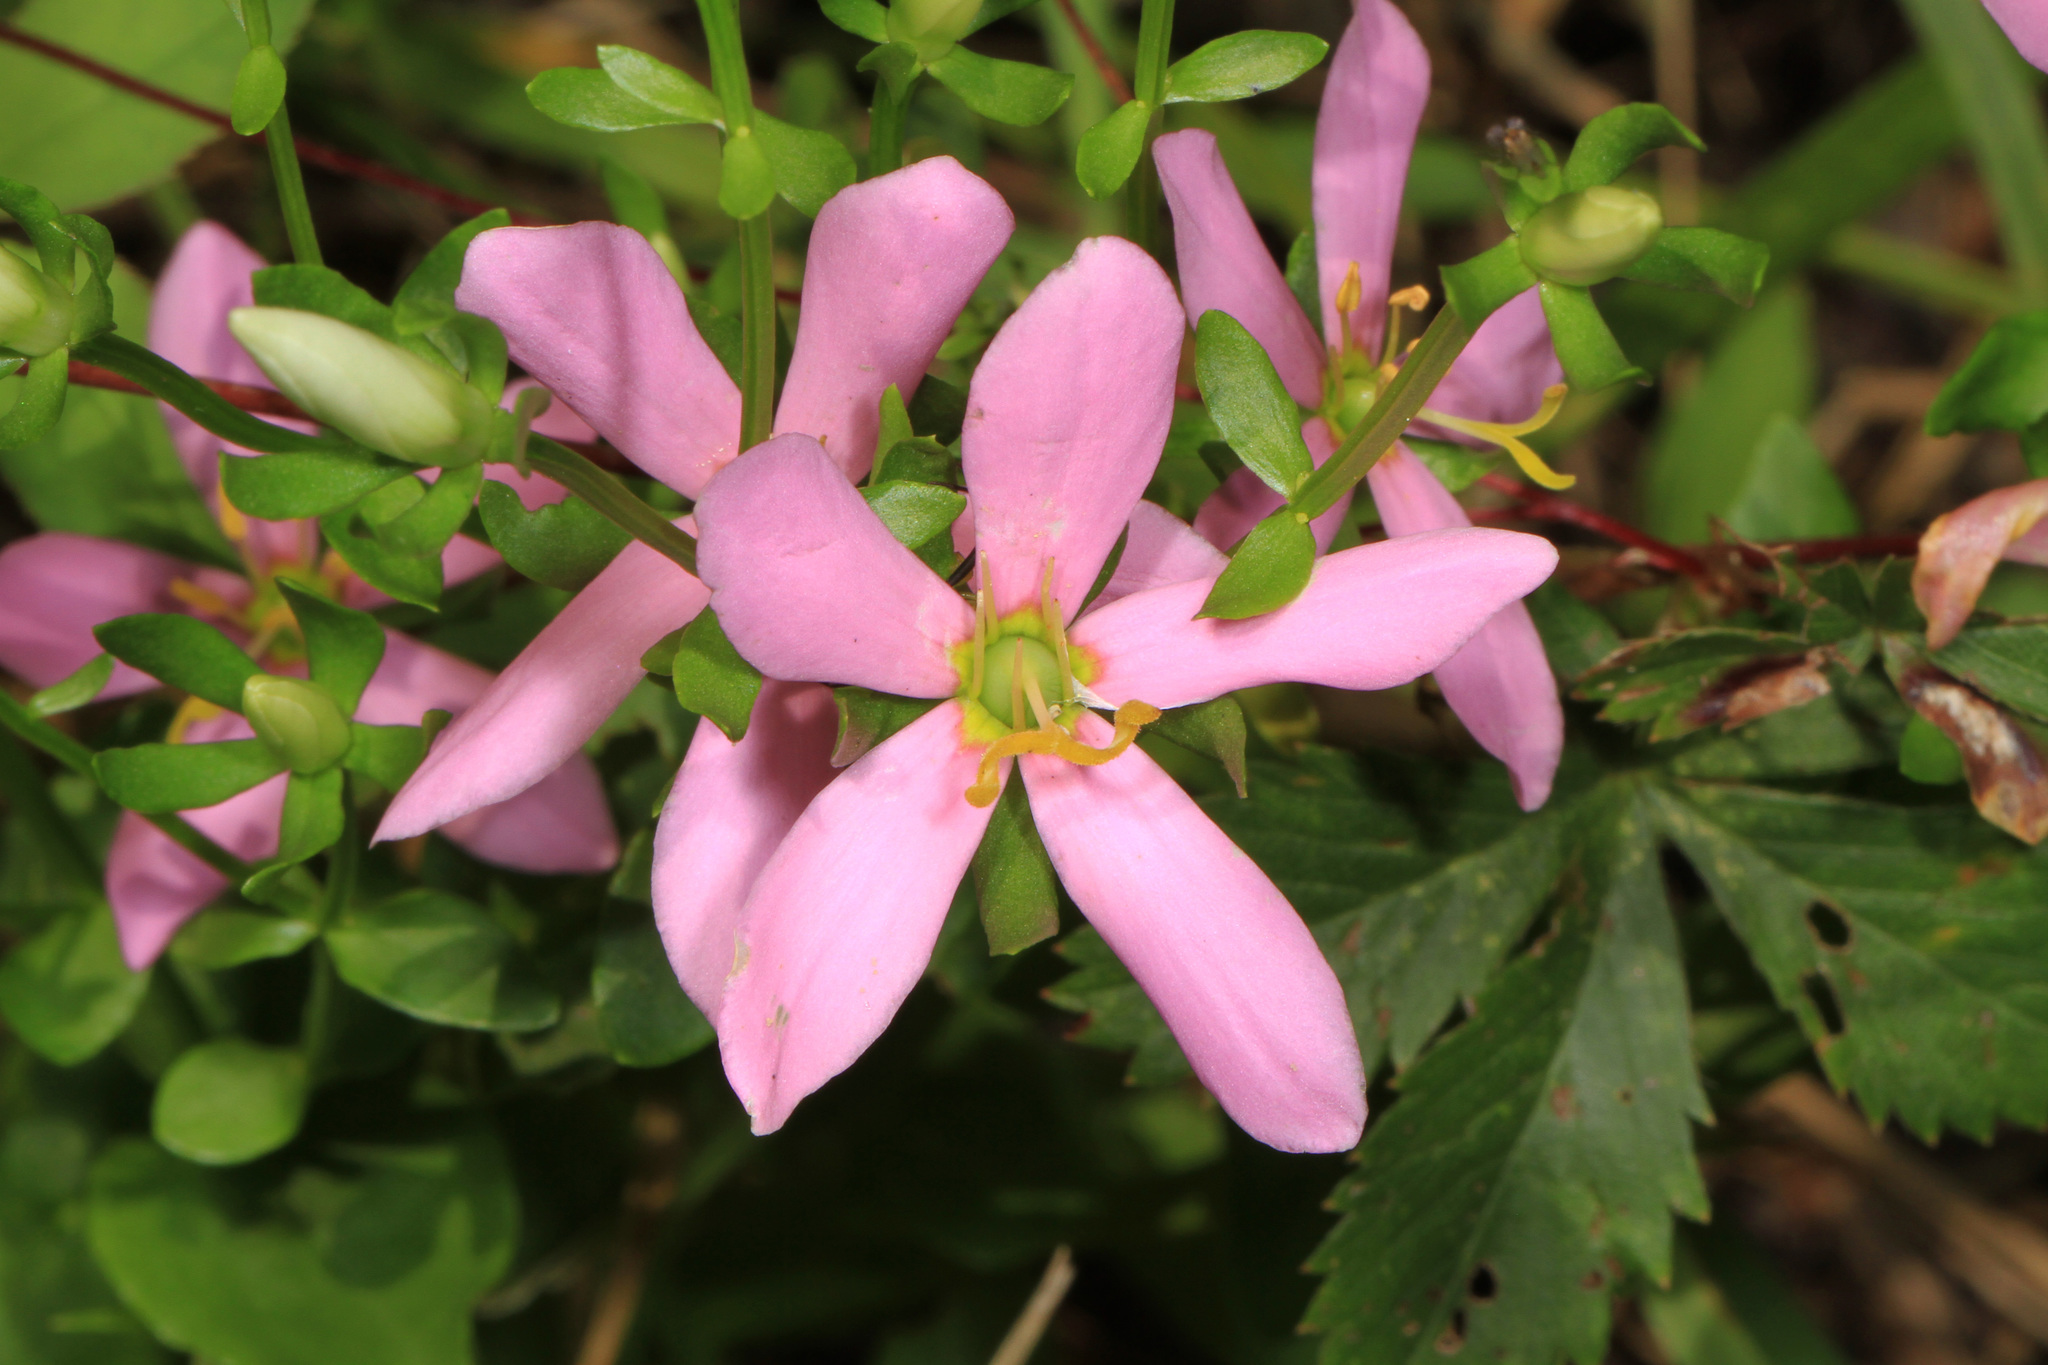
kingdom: Plantae
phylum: Tracheophyta
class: Magnoliopsida
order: Gentianales
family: Gentianaceae
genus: Sabatia
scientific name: Sabatia angularis
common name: Rose-pink
